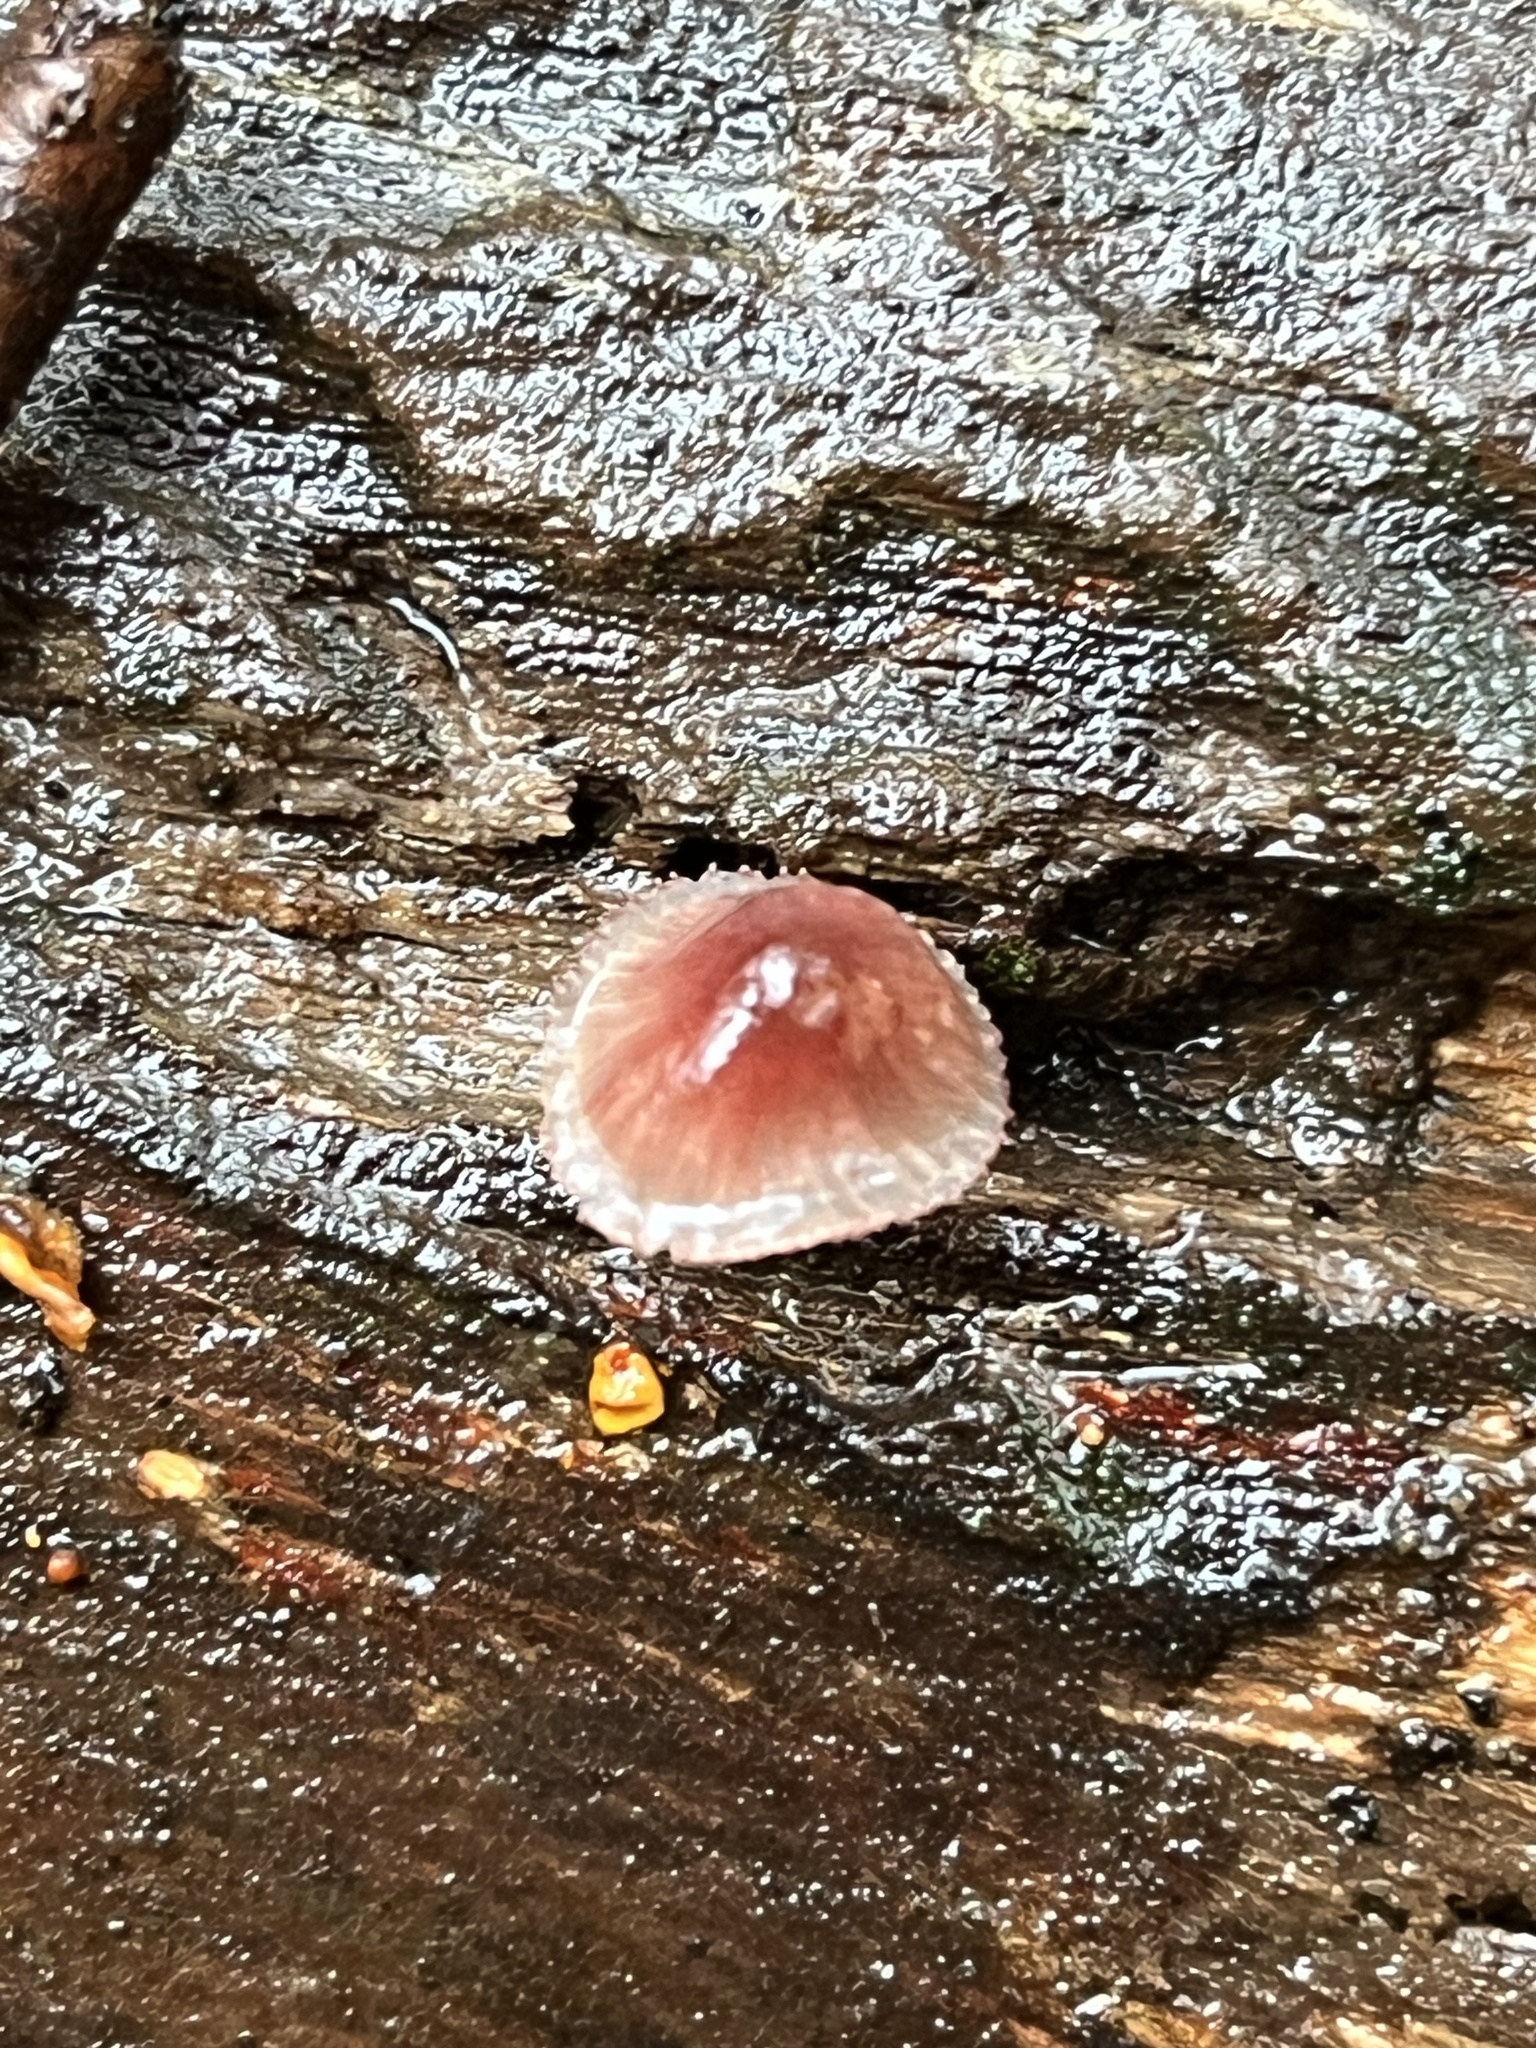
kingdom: Fungi
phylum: Basidiomycota
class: Agaricomycetes
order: Agaricales
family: Mycenaceae
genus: Mycena
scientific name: Mycena haematopus
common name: Burgundydrop bonnet
